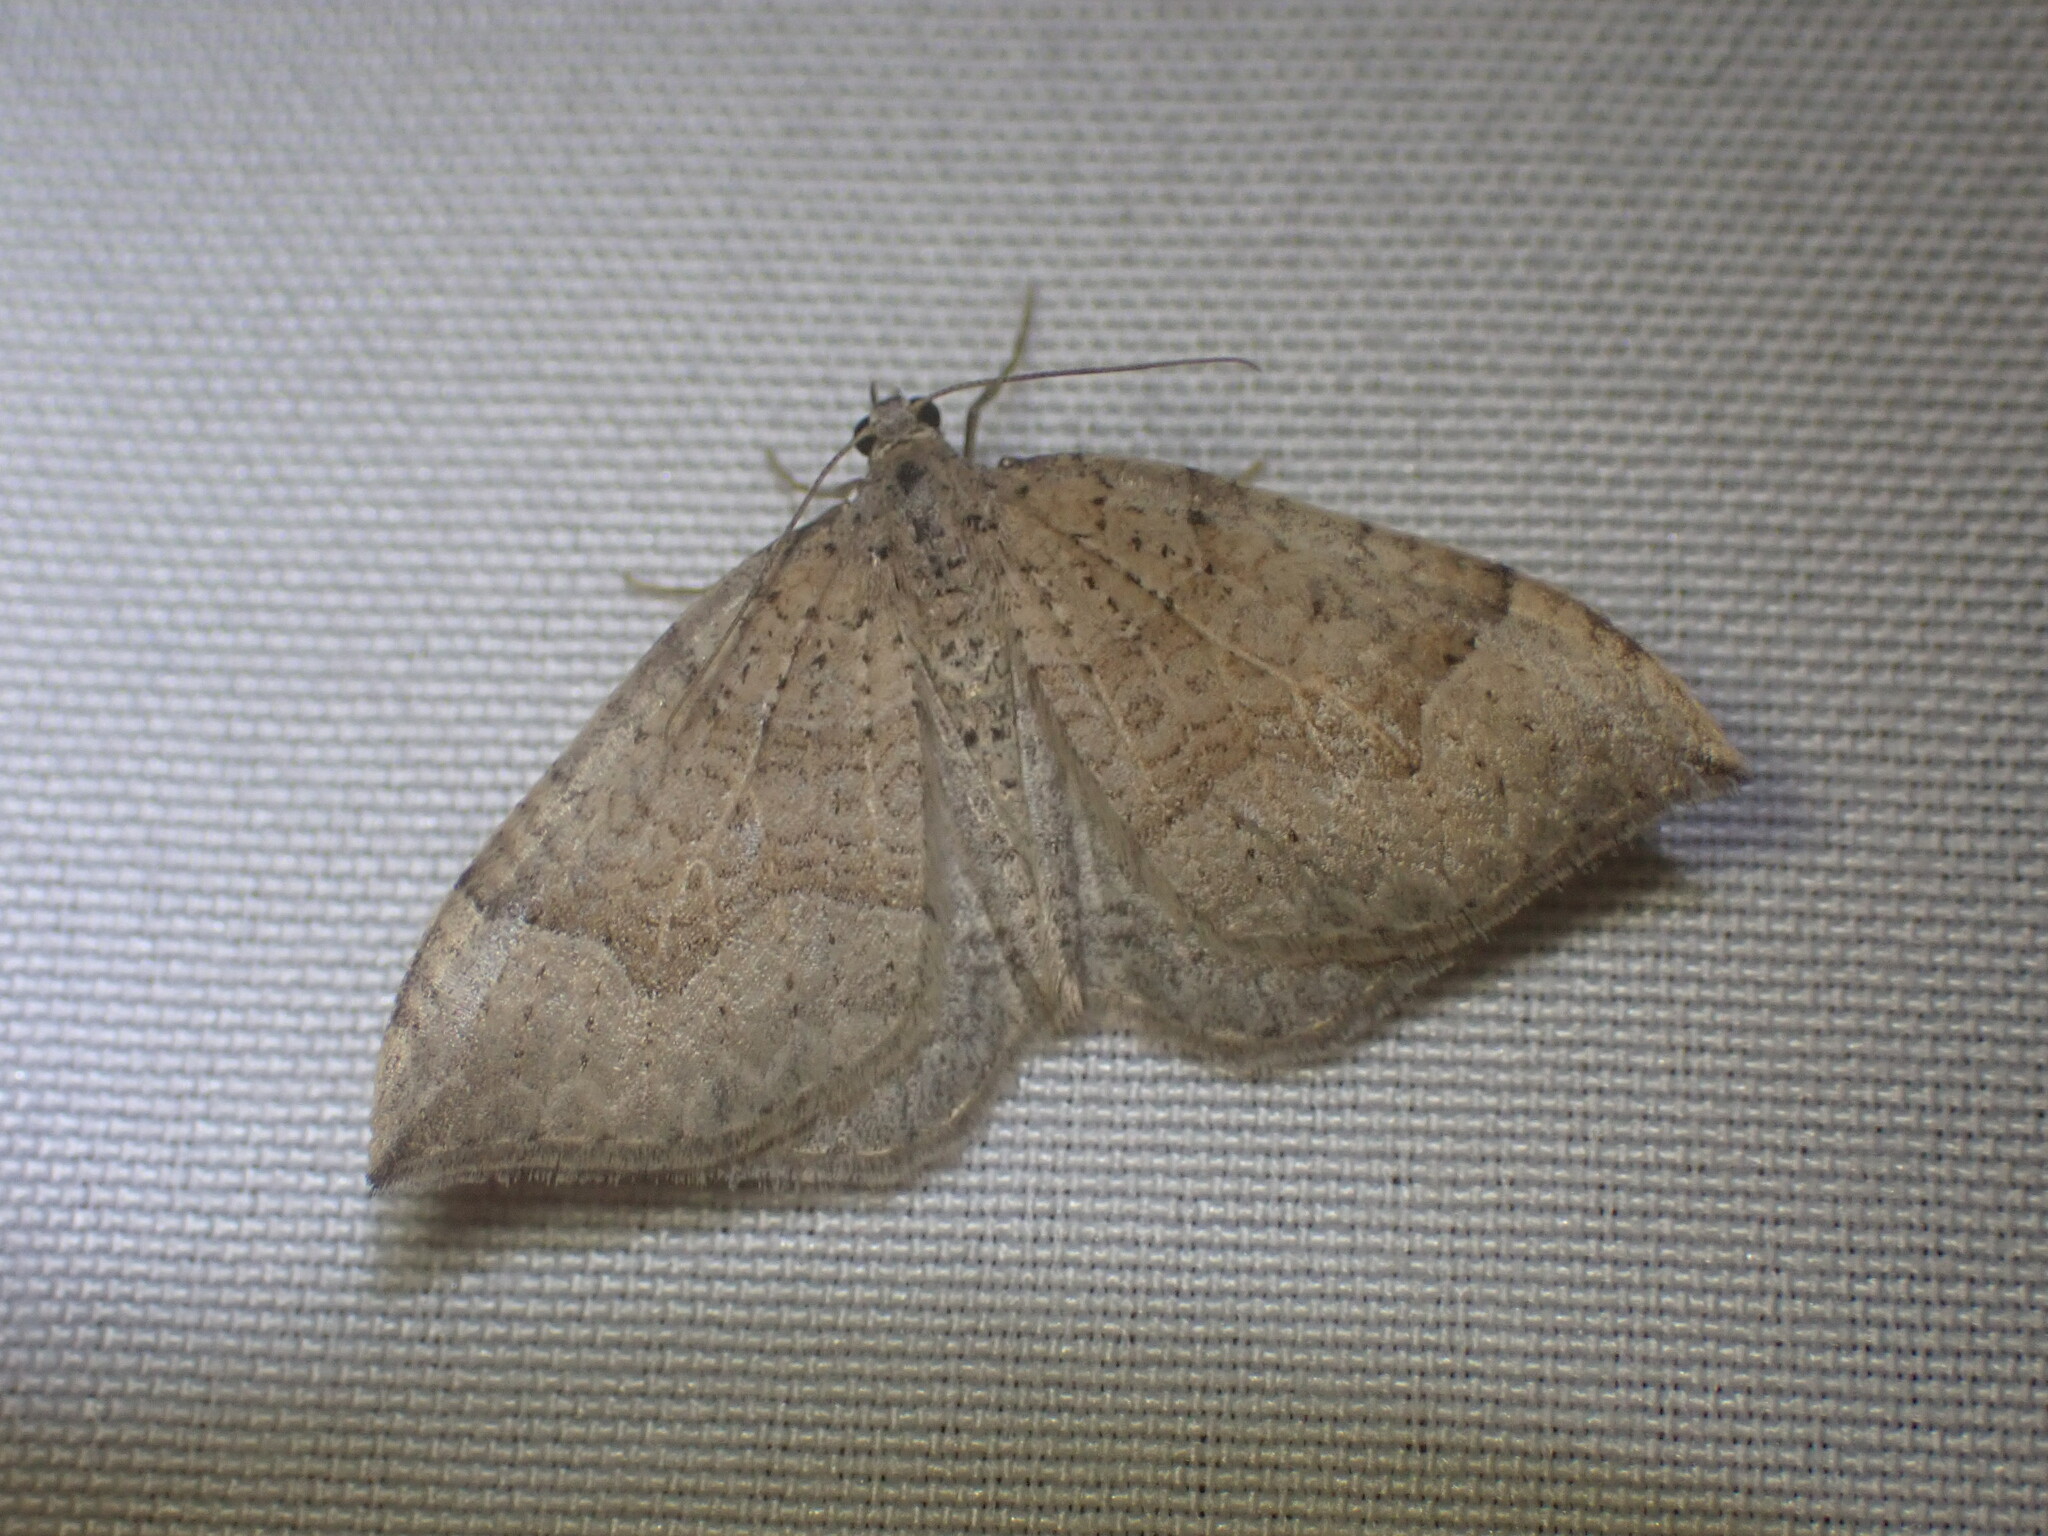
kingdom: Animalia
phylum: Arthropoda
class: Insecta
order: Lepidoptera
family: Geometridae
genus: Zenophleps
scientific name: Zenophleps lignicolorata
